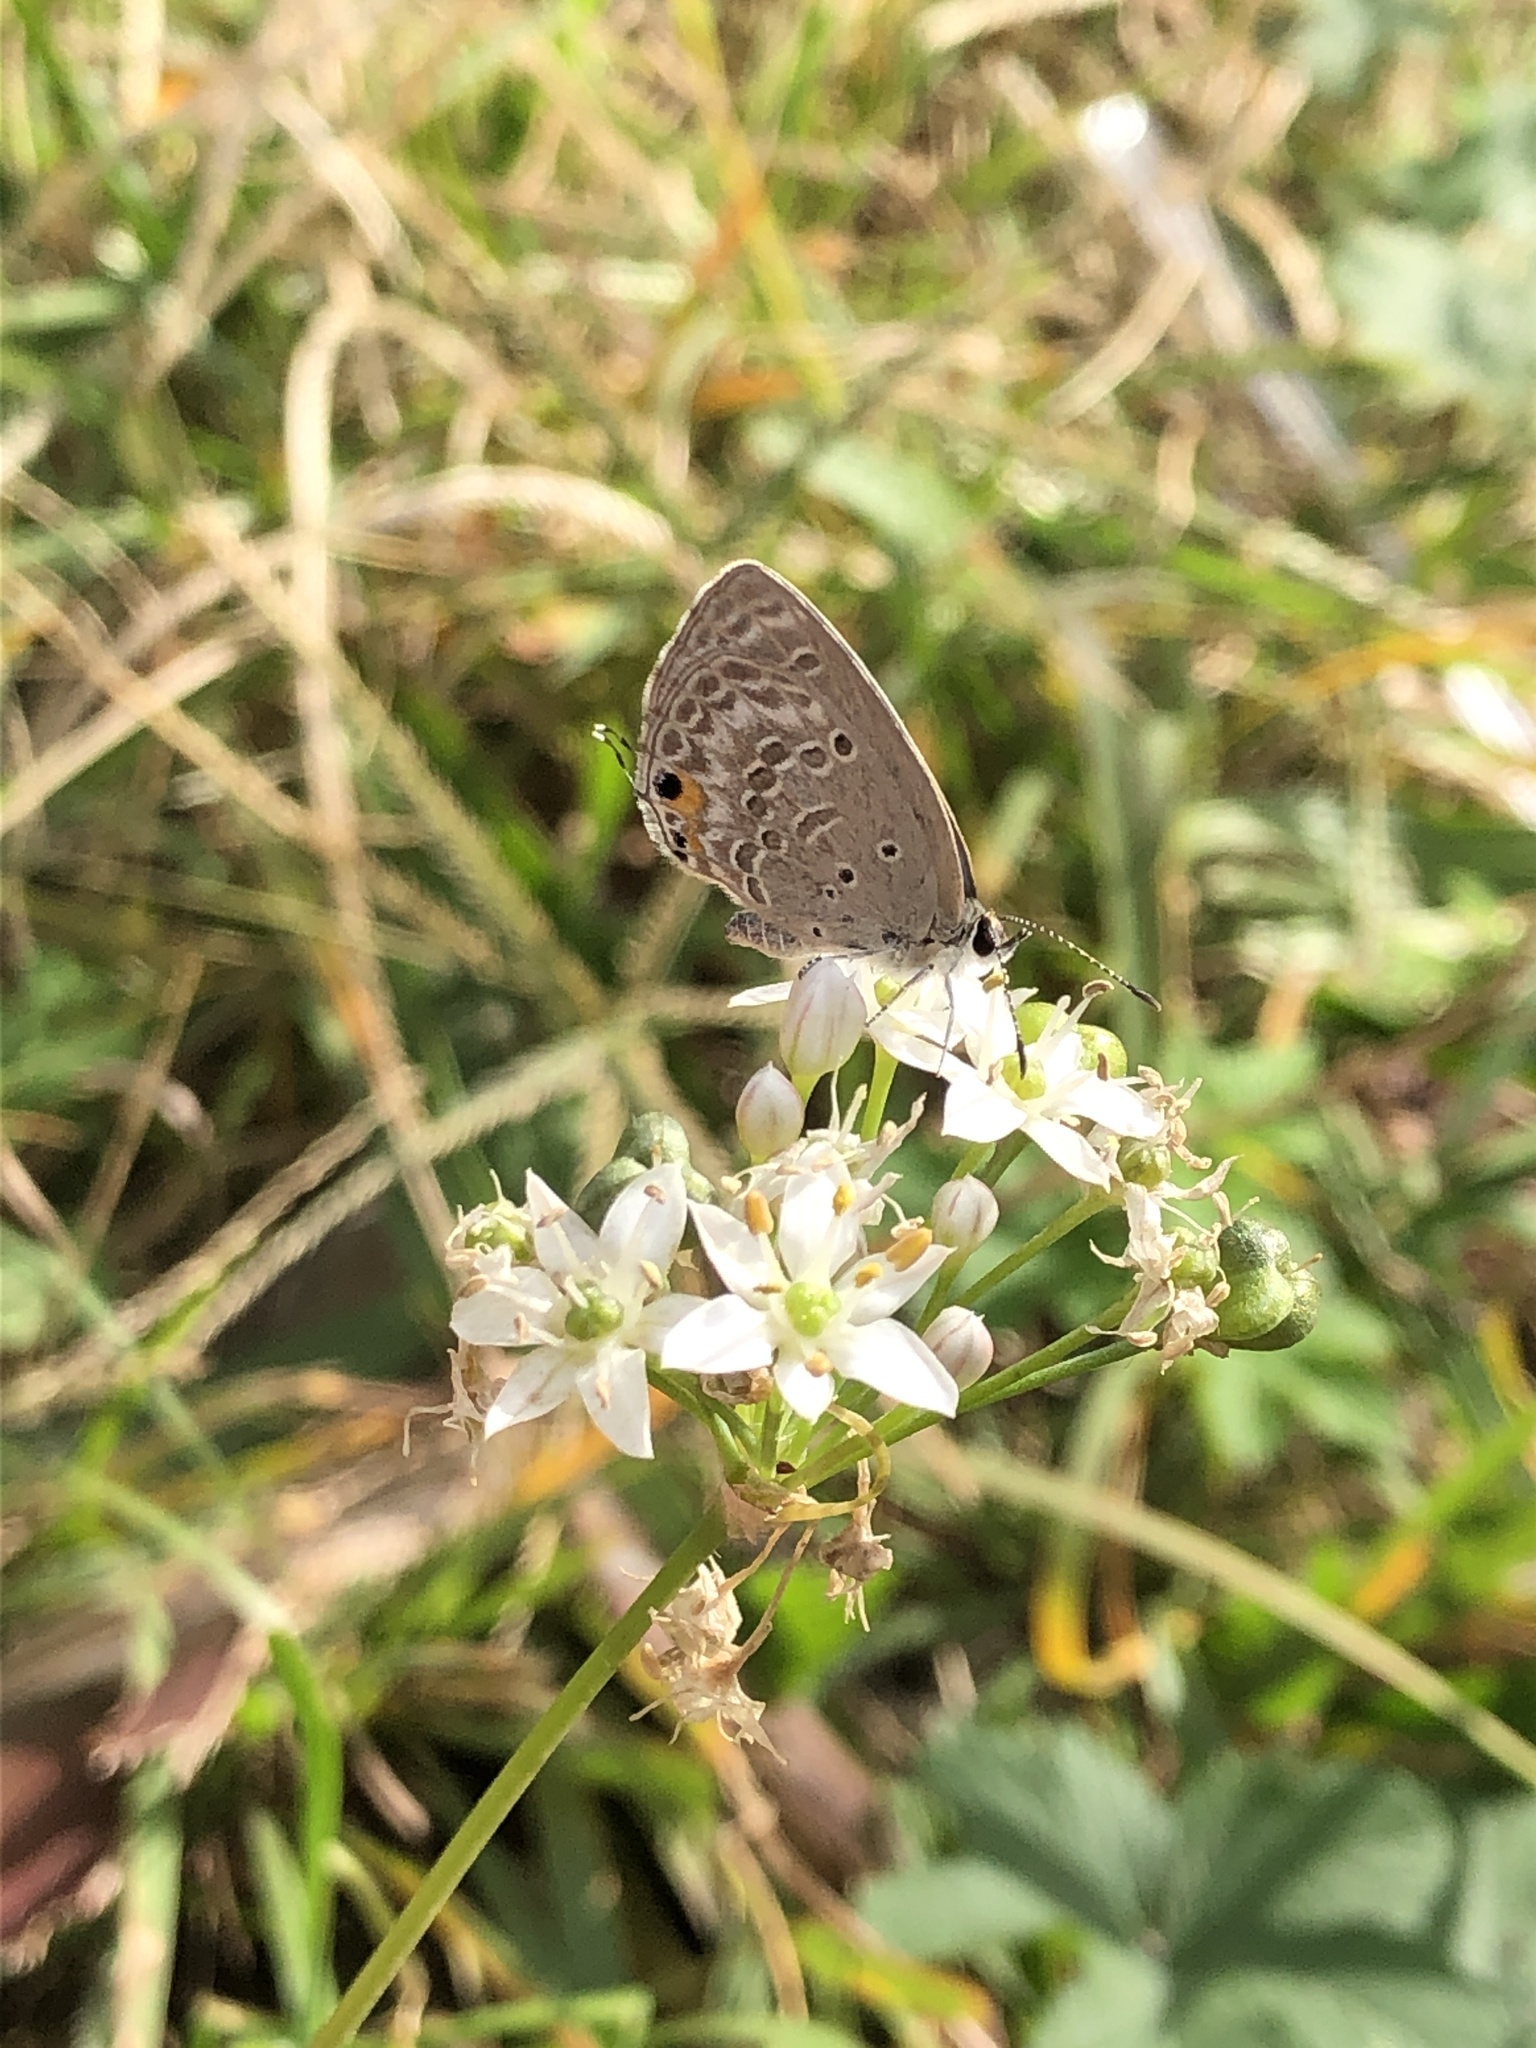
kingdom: Animalia
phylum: Arthropoda
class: Insecta
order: Lepidoptera
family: Lycaenidae
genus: Luthrodes
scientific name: Luthrodes pandava
